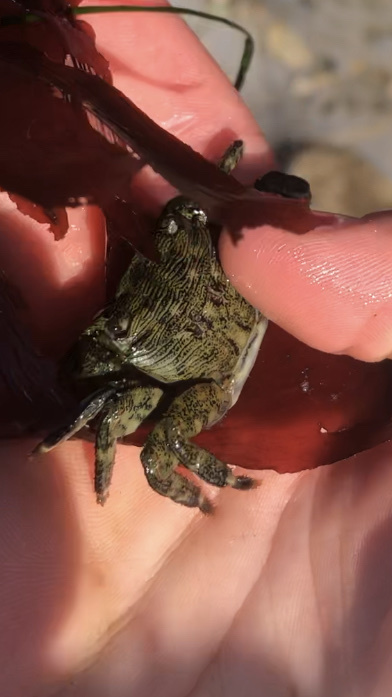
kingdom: Animalia
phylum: Arthropoda
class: Malacostraca
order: Decapoda
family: Grapsidae
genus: Pachygrapsus
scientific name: Pachygrapsus crassipes
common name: Striped shore crab
